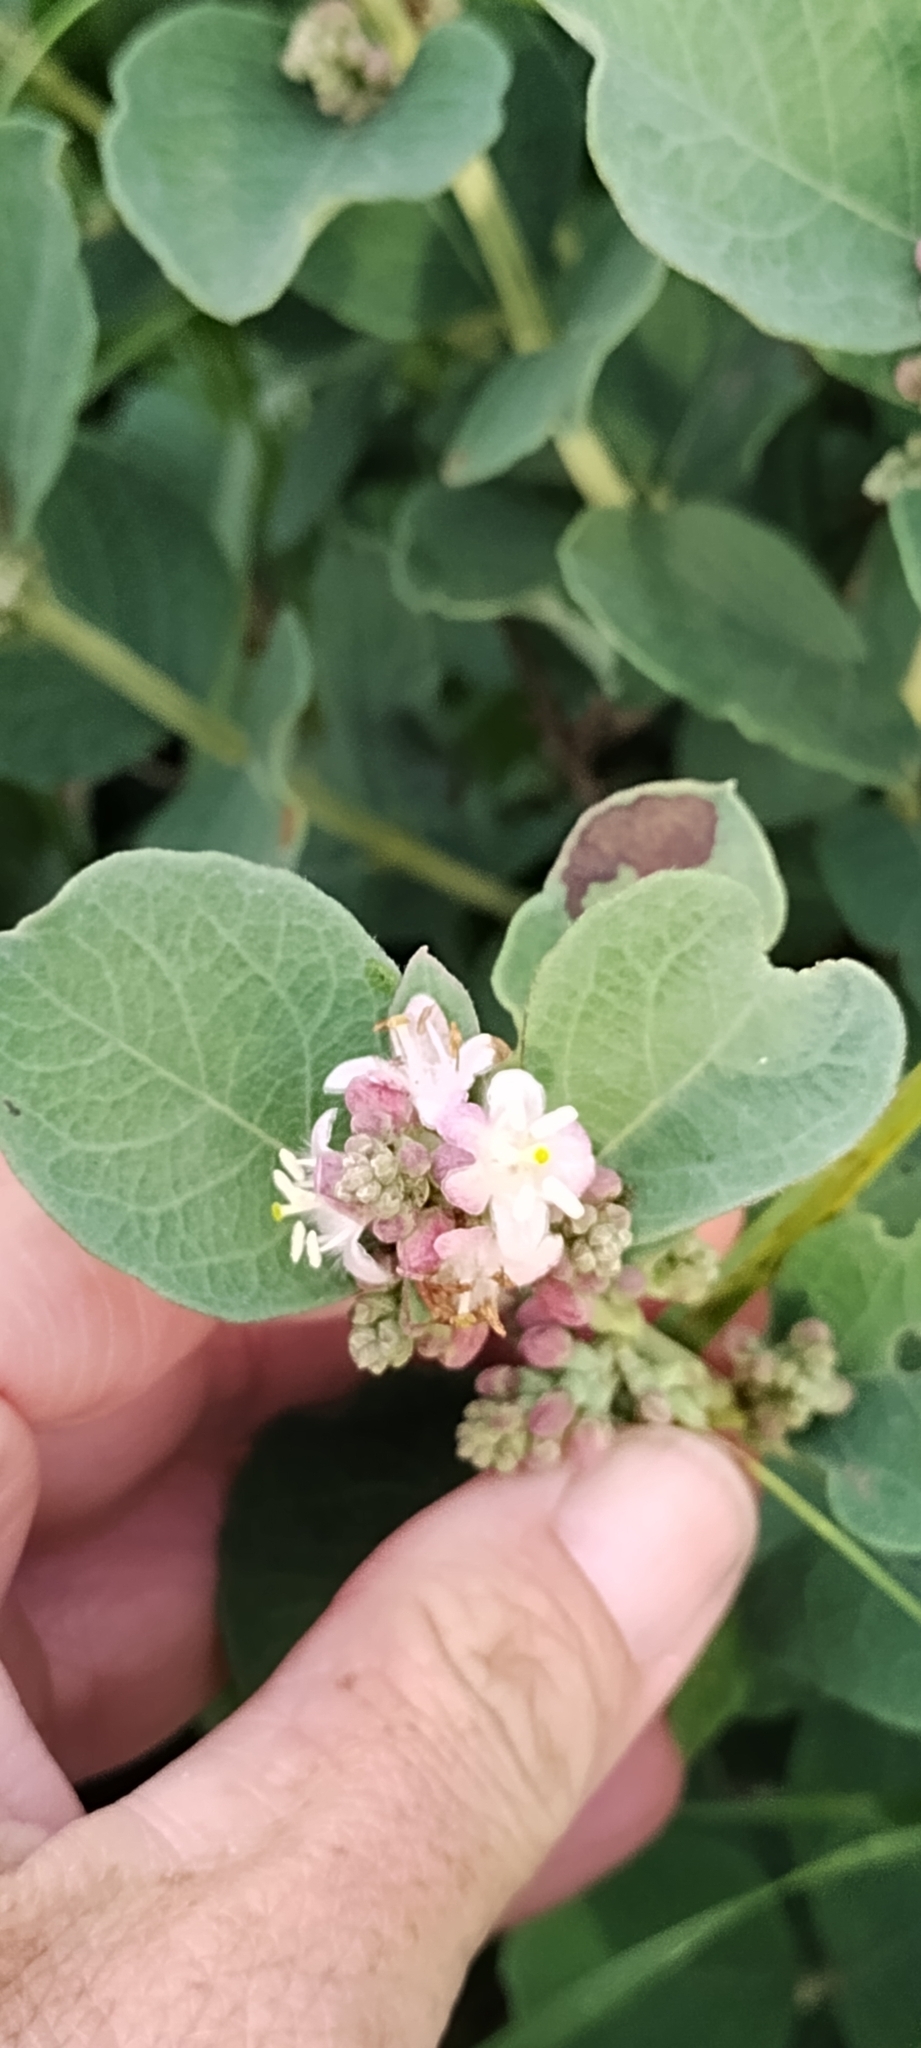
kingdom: Plantae
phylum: Tracheophyta
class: Magnoliopsida
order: Dipsacales
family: Caprifoliaceae
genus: Symphoricarpos
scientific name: Symphoricarpos occidentalis
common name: Wolfberry
